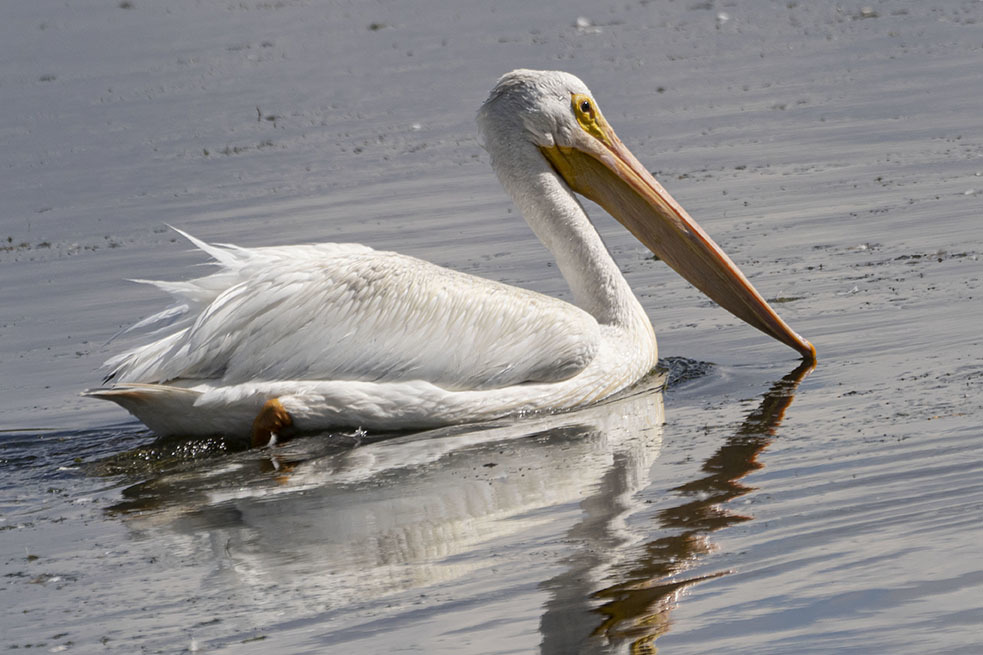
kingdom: Animalia
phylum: Chordata
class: Aves
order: Pelecaniformes
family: Pelecanidae
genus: Pelecanus
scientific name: Pelecanus erythrorhynchos
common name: American white pelican
